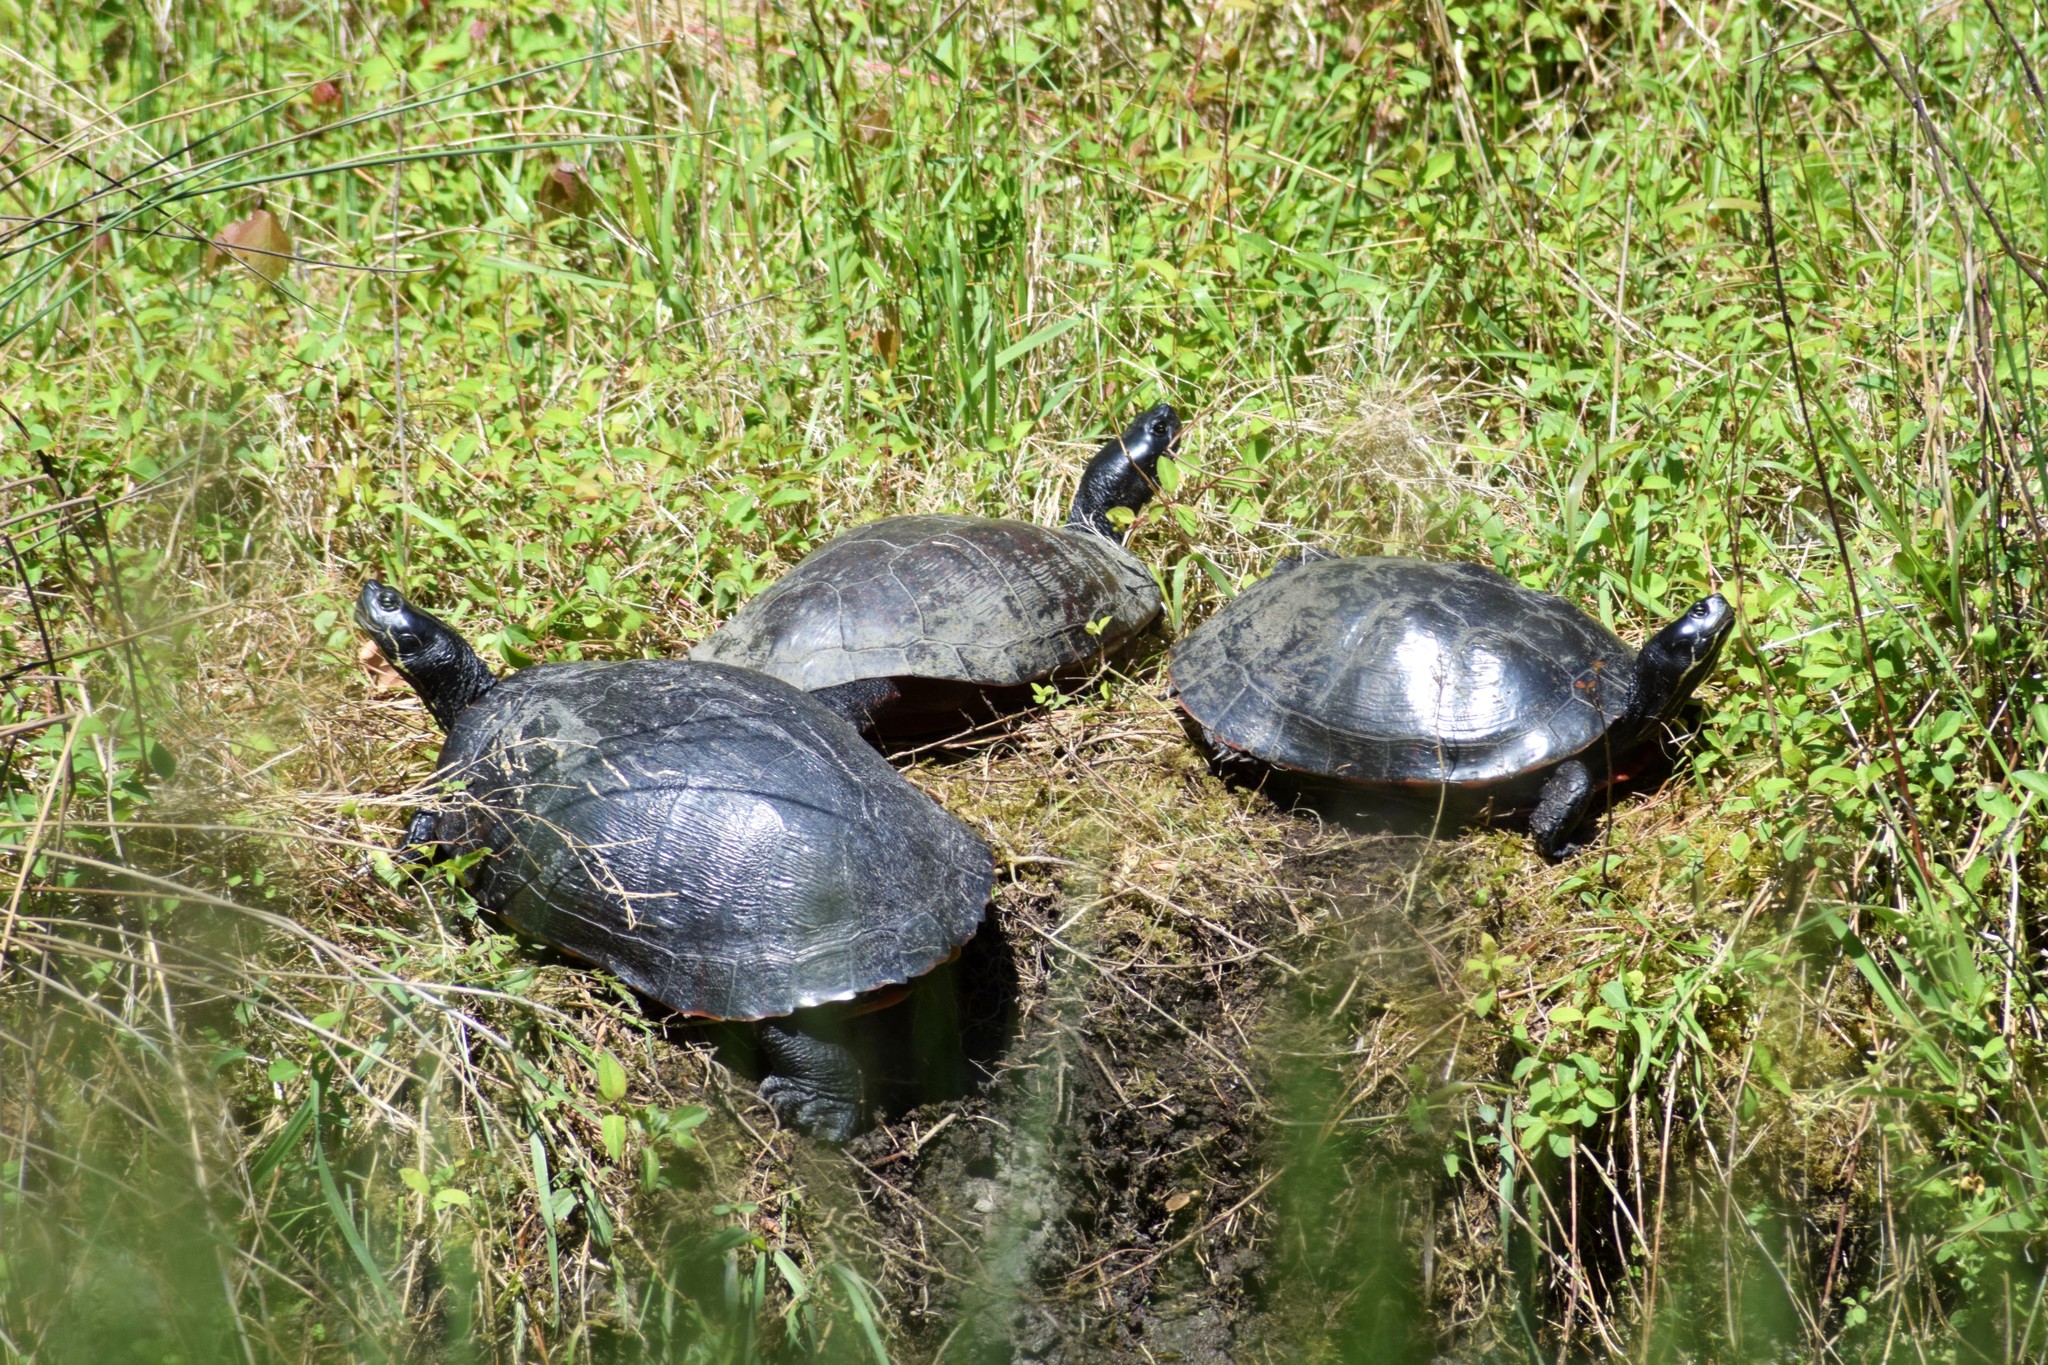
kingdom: Animalia
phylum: Chordata
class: Testudines
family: Emydidae
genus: Pseudemys
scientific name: Pseudemys rubriventris
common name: American red-bellied turtle
